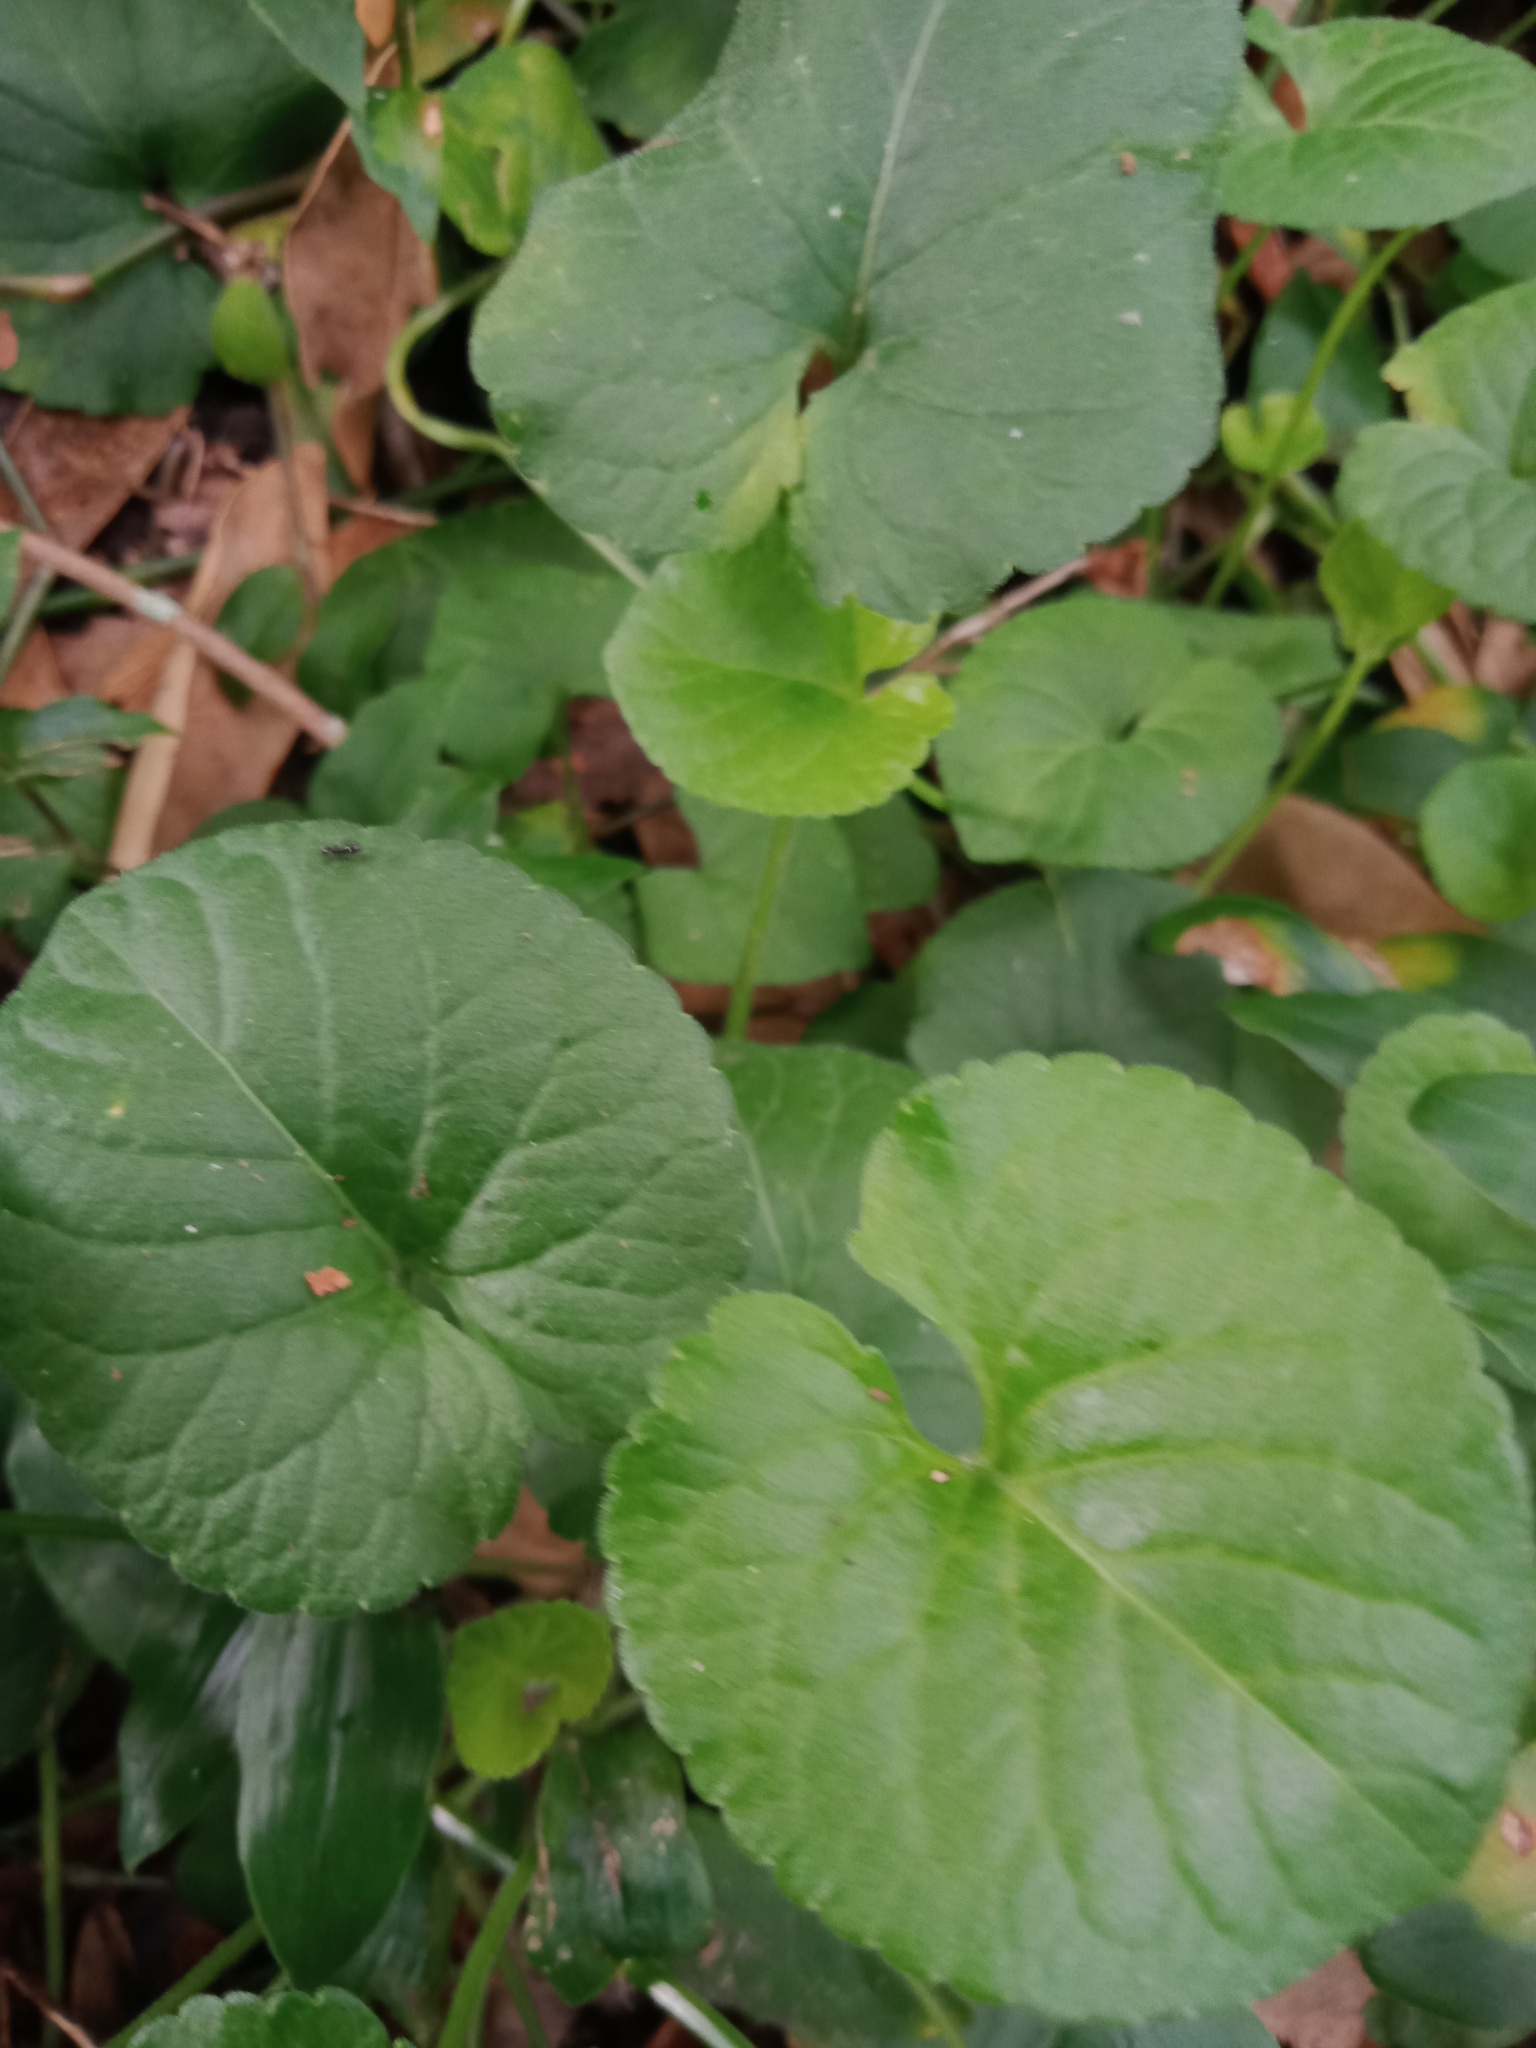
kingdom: Plantae
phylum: Tracheophyta
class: Magnoliopsida
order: Malpighiales
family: Violaceae
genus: Viola
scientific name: Viola odorata
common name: Sweet violet
